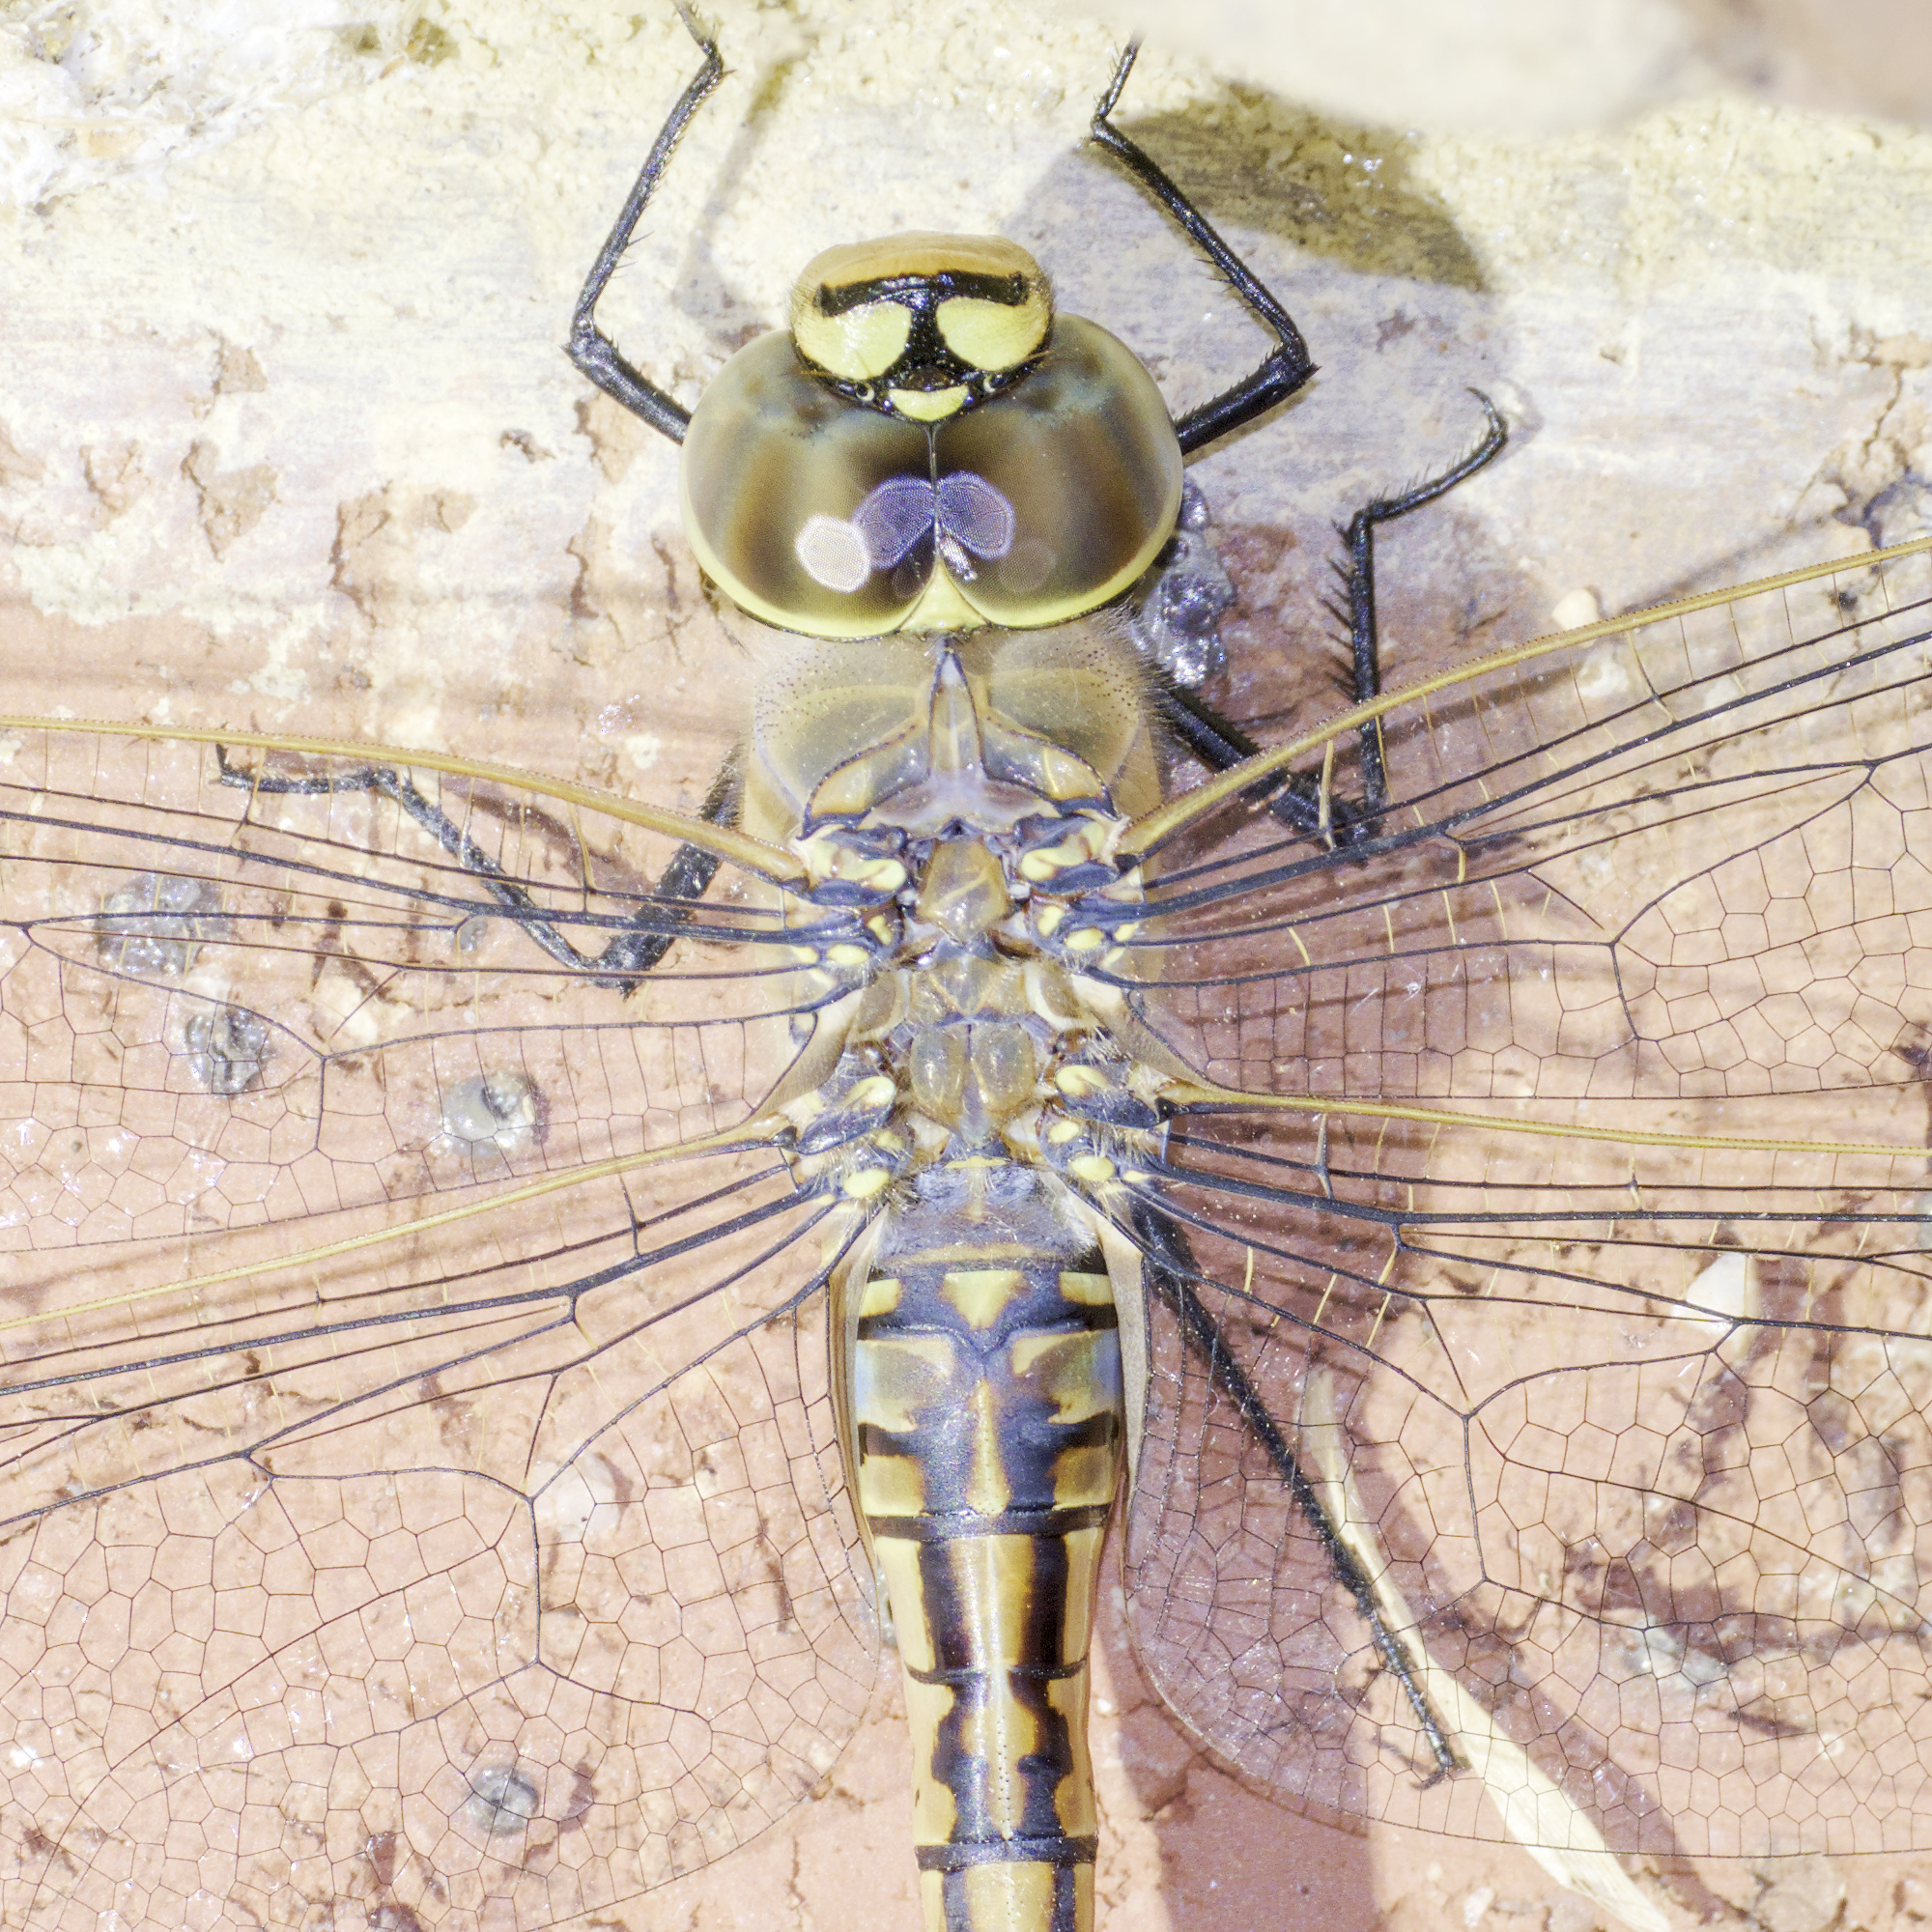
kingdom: Animalia
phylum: Arthropoda
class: Insecta
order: Odonata
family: Aeshnidae
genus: Anax
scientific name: Anax papuensis
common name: Australian emperor
